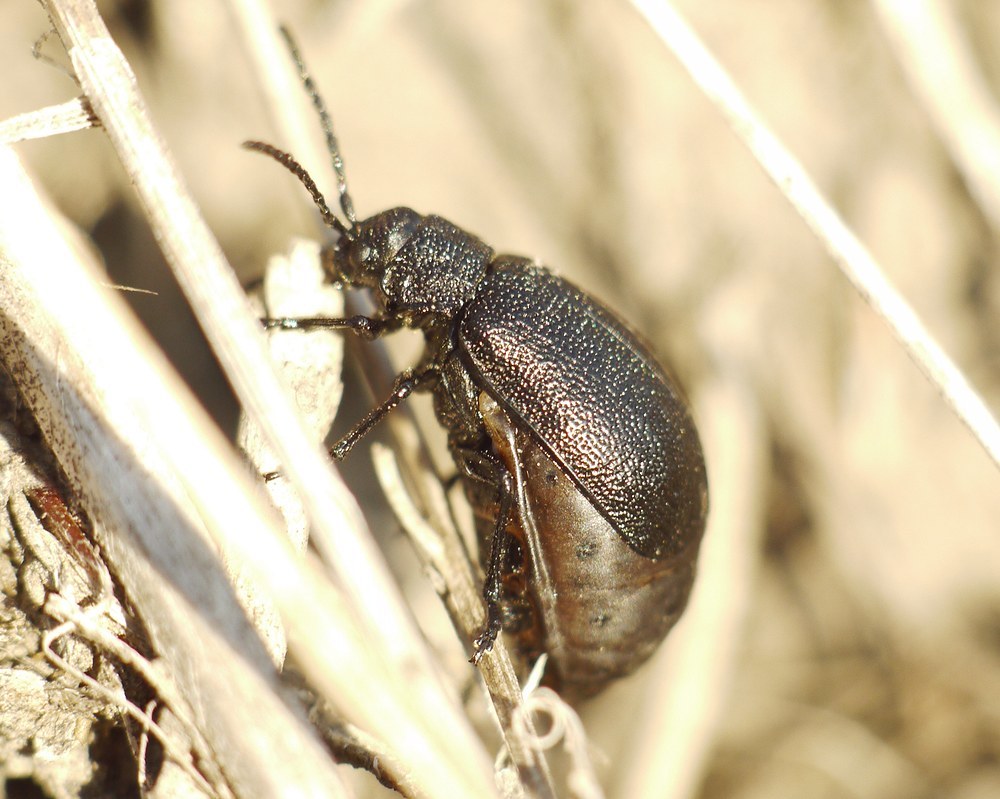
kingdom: Animalia
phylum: Arthropoda
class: Insecta
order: Coleoptera
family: Chrysomelidae
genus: Galeruca
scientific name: Galeruca tanaceti
